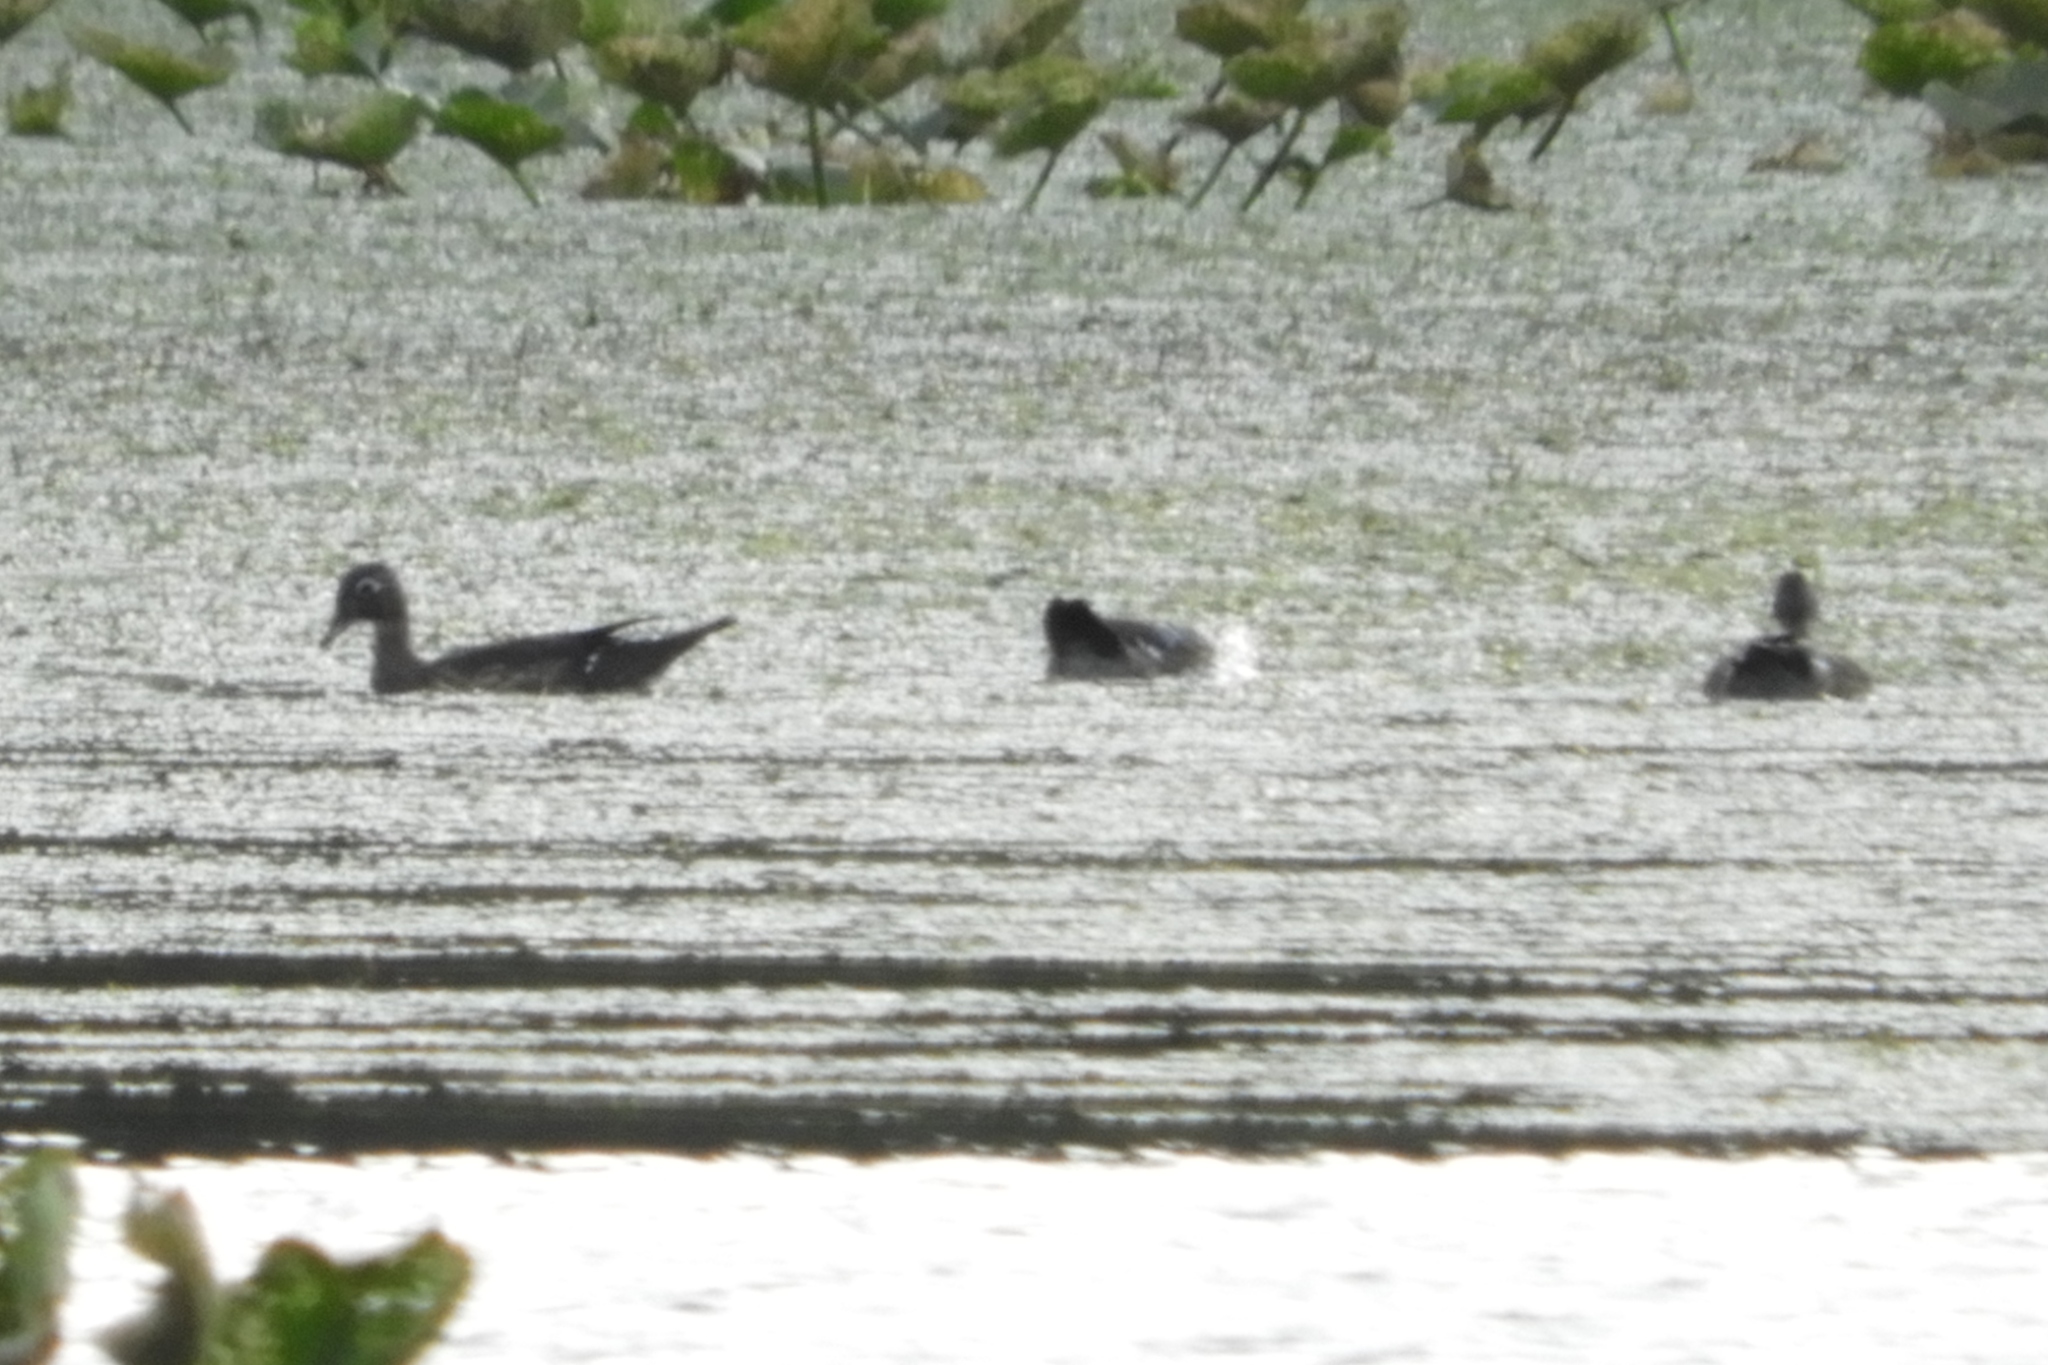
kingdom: Animalia
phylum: Chordata
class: Aves
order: Anseriformes
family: Anatidae
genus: Aix
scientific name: Aix sponsa
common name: Wood duck
